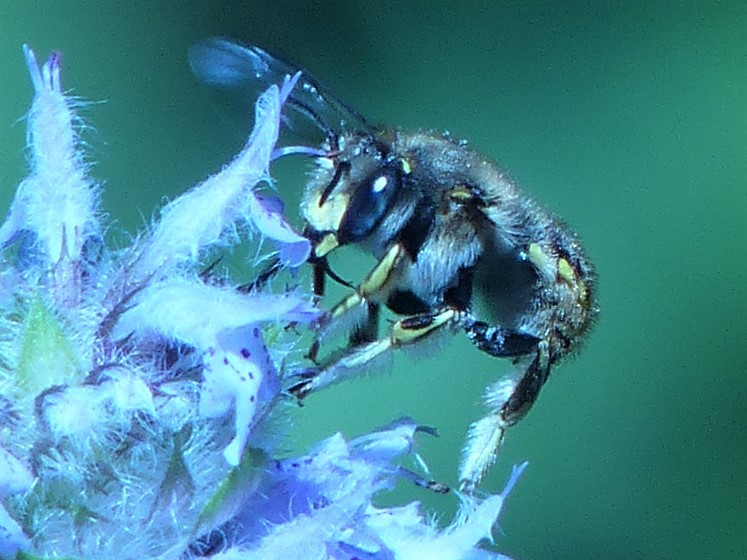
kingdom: Animalia
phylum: Arthropoda
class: Insecta
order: Hymenoptera
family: Megachilidae
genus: Anthidium
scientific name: Anthidium manicatum
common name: Wool carder bee
